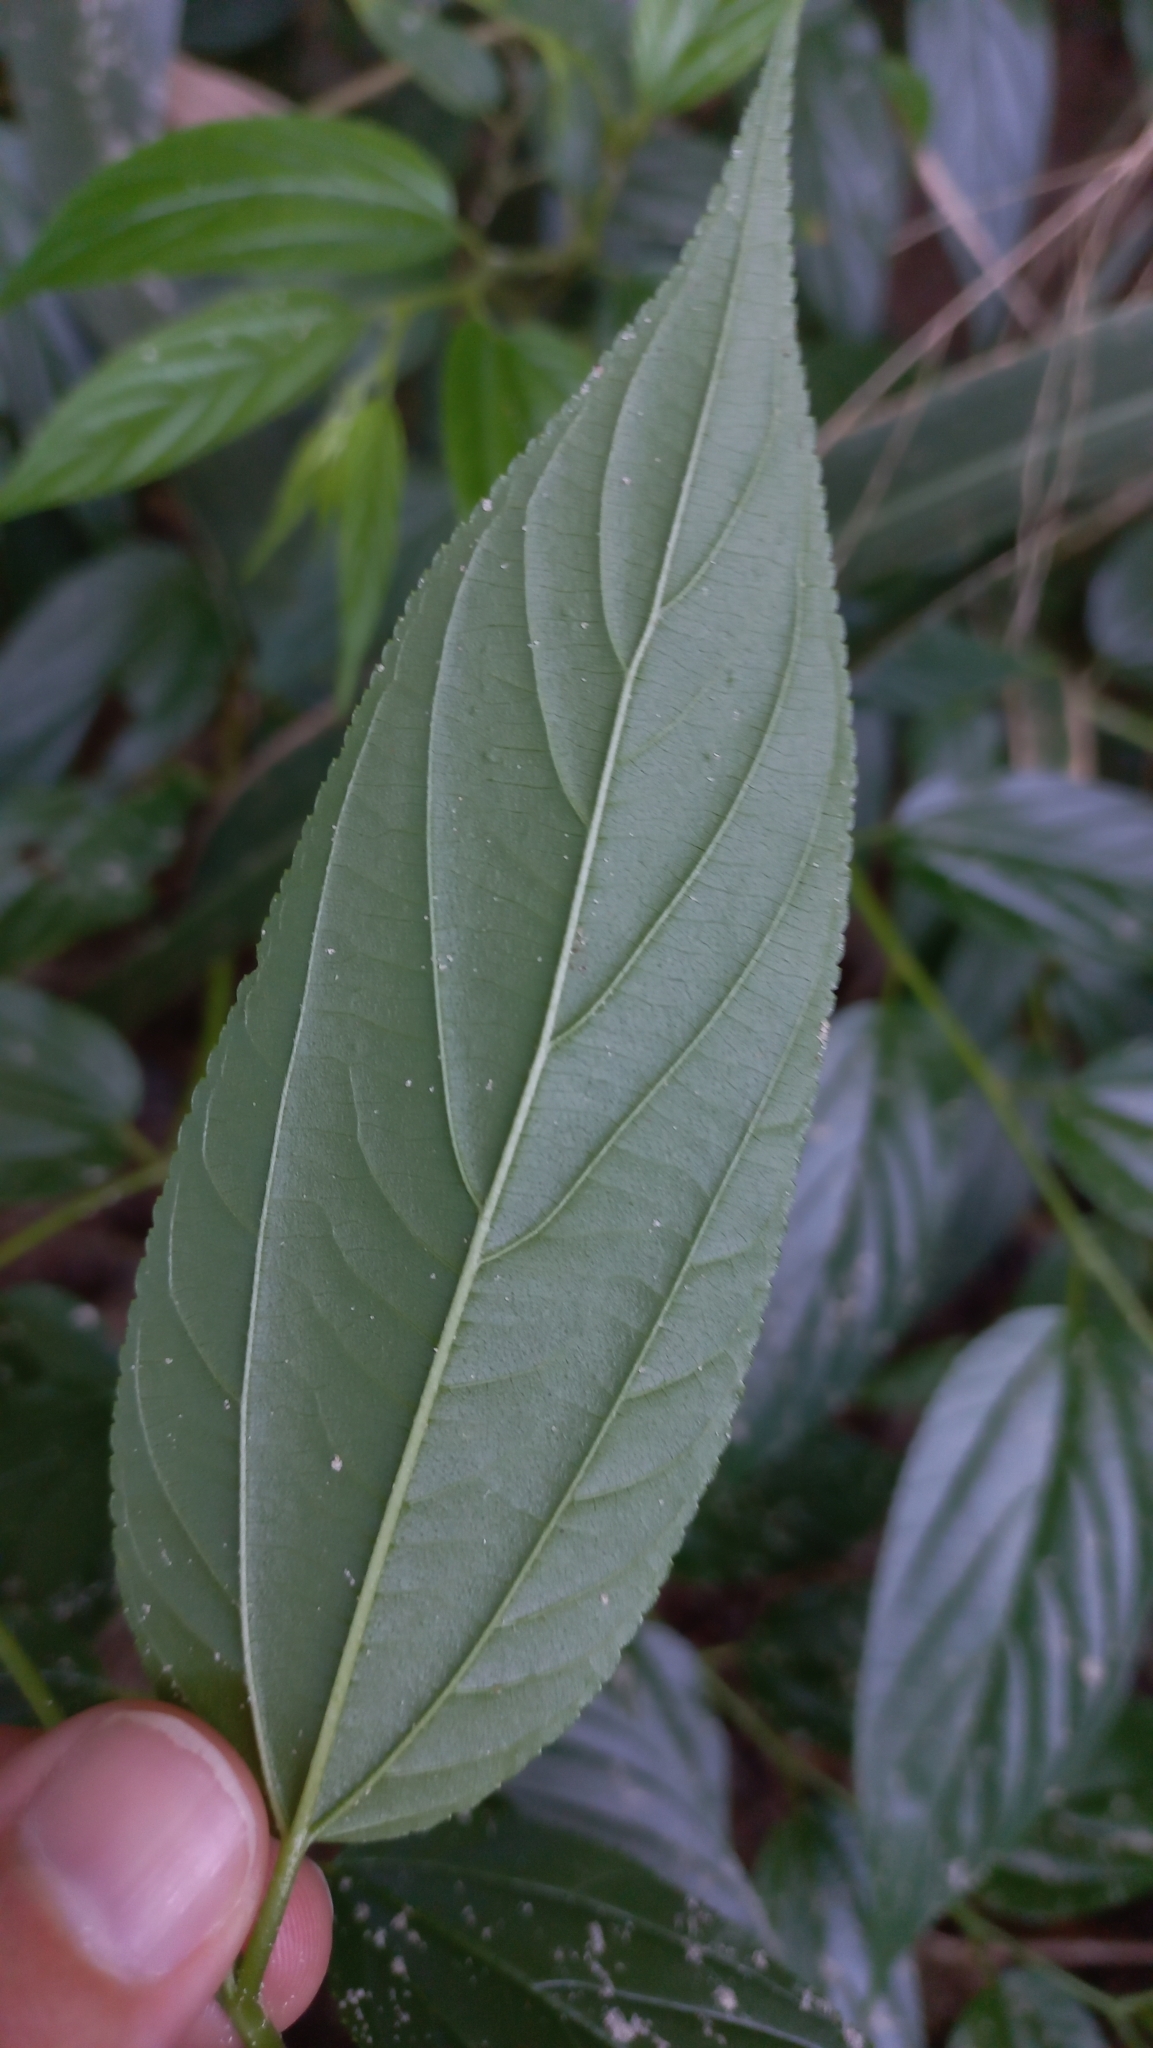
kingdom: Plantae
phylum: Tracheophyta
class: Magnoliopsida
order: Rosales
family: Cannabaceae
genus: Trema
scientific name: Trema micranthum
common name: Jamaican nettletree
